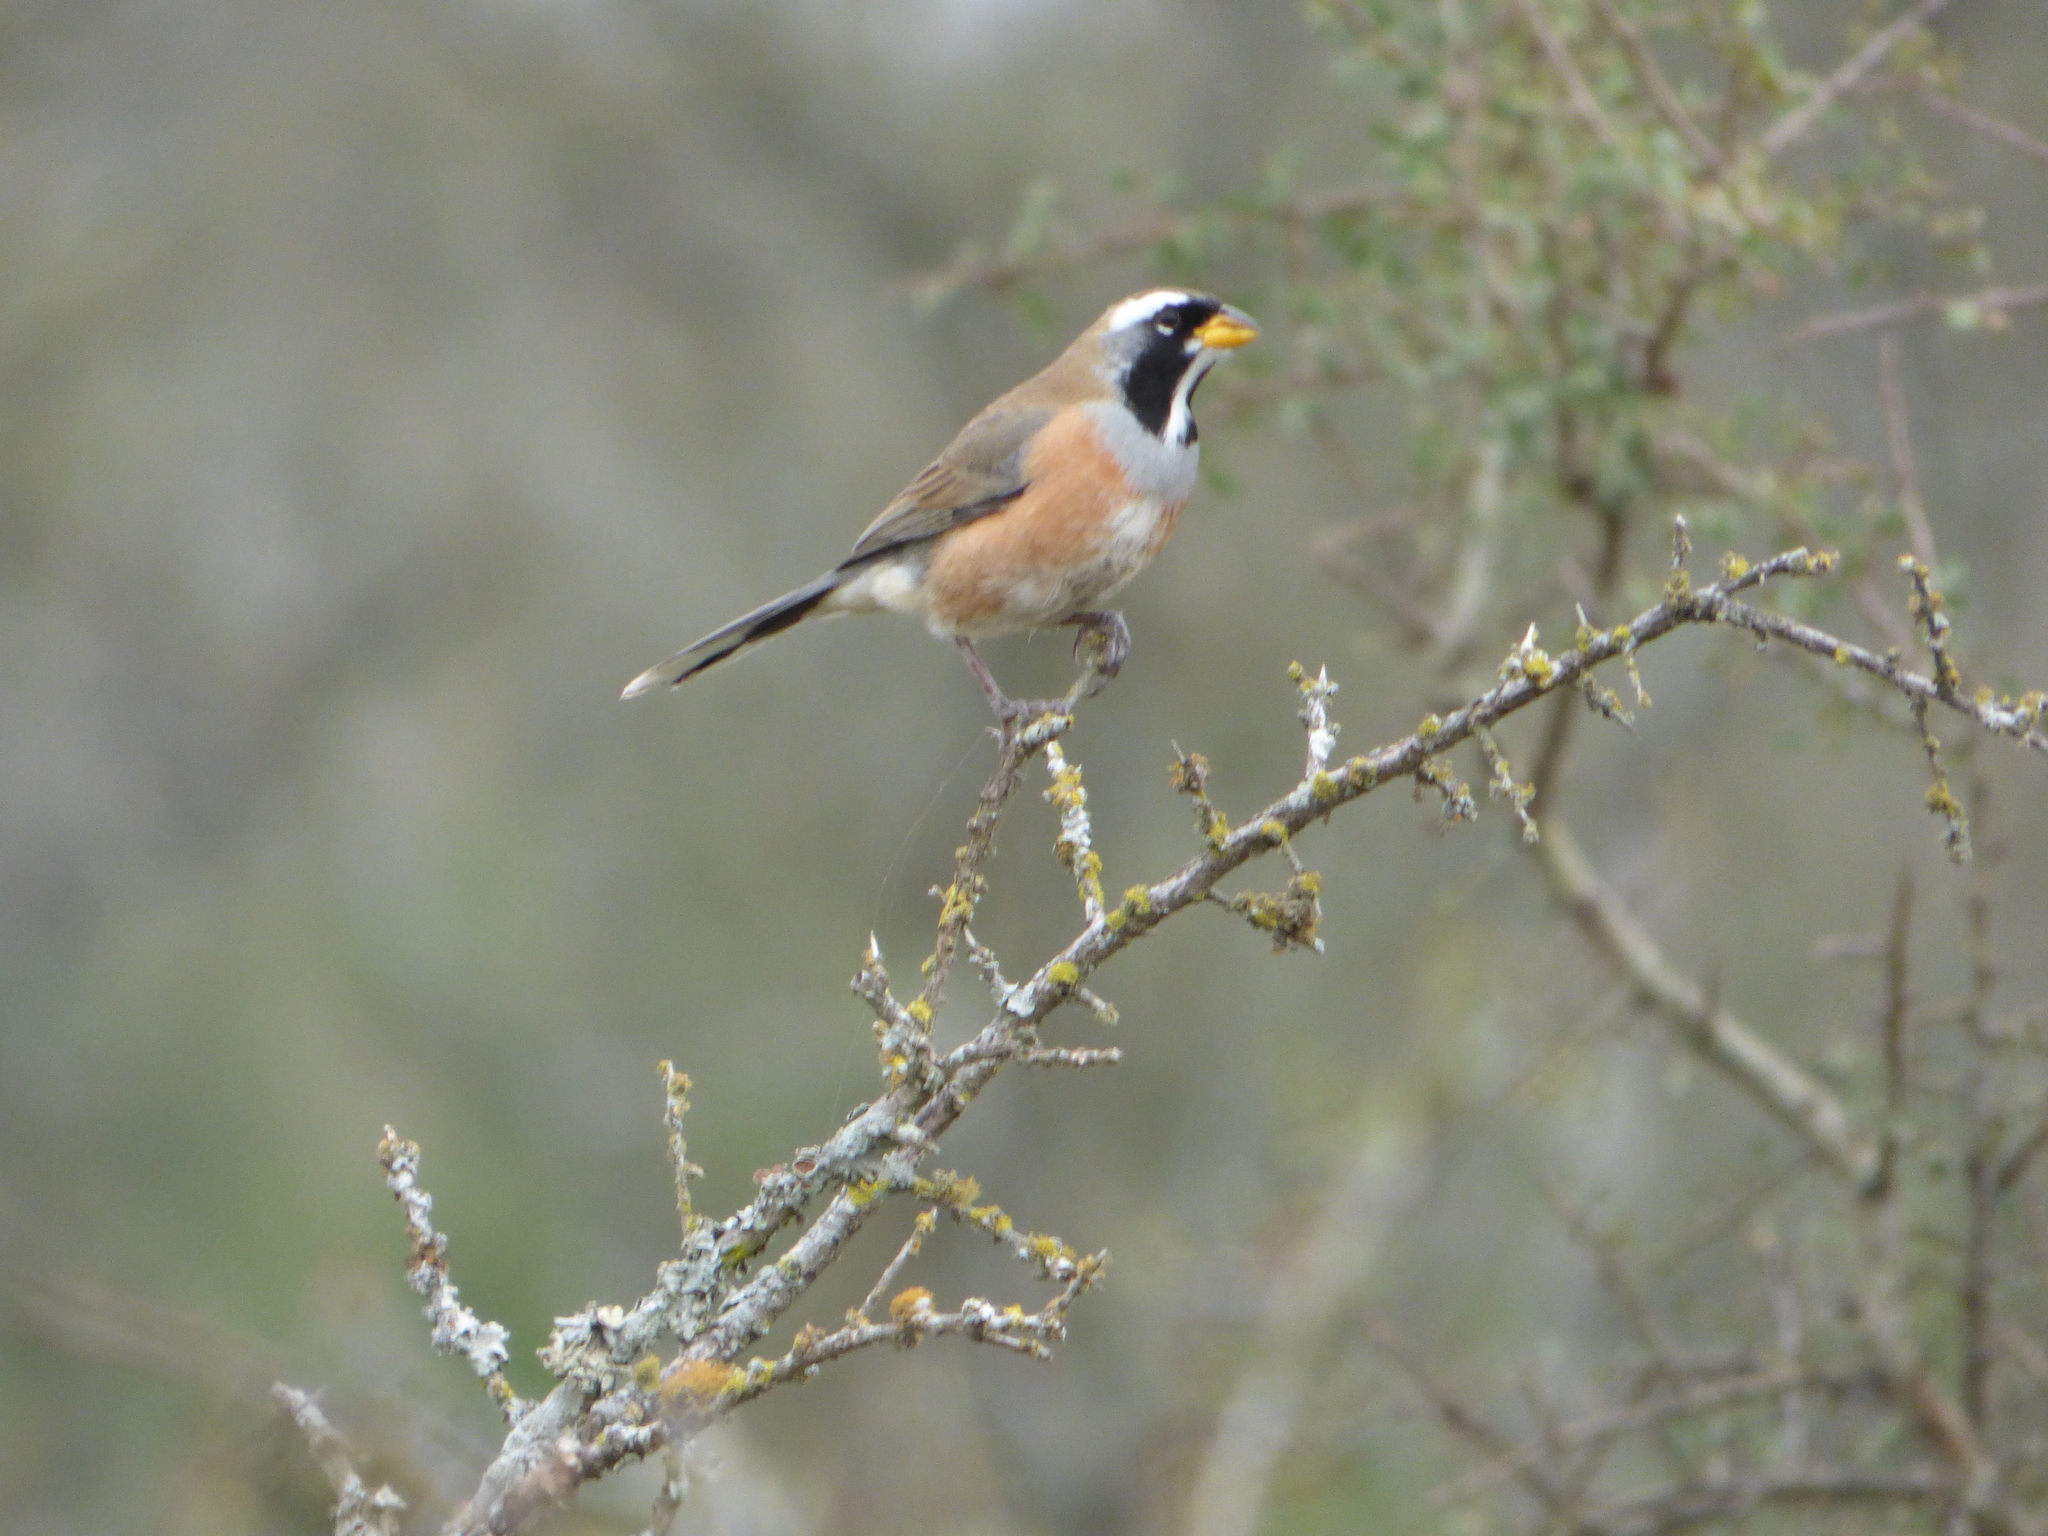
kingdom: Animalia
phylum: Chordata
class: Aves
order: Passeriformes
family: Thraupidae
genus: Saltatricula
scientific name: Saltatricula multicolor
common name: Many-colored chaco finch
